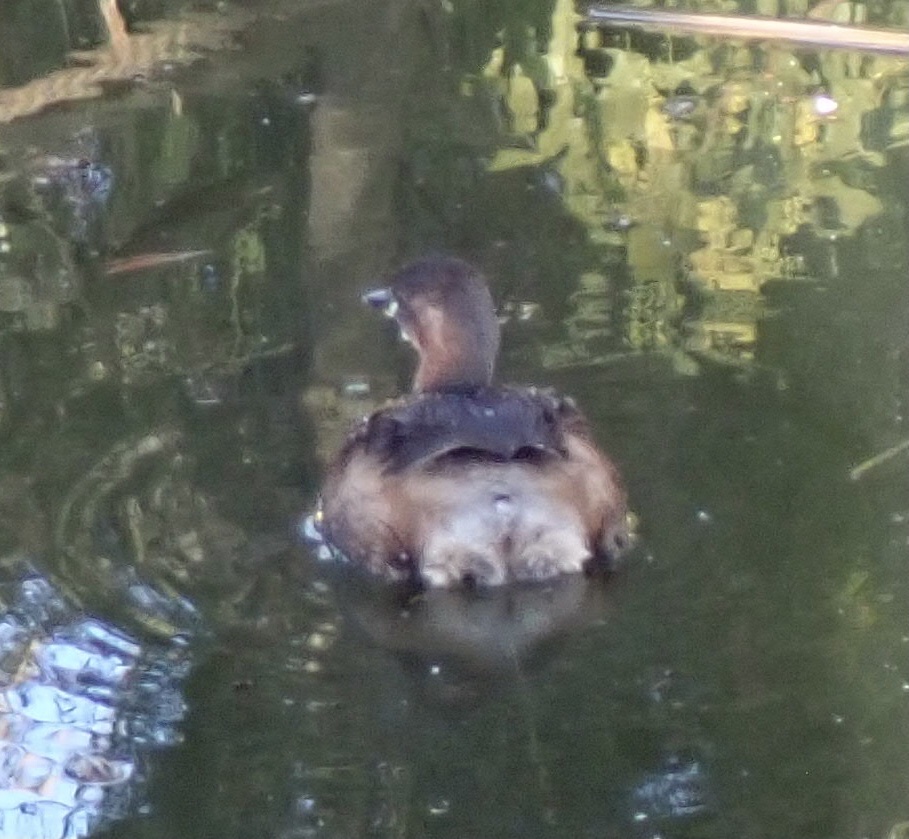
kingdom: Animalia
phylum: Chordata
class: Aves
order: Podicipediformes
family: Podicipedidae
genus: Tachybaptus
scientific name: Tachybaptus ruficollis
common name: Little grebe
